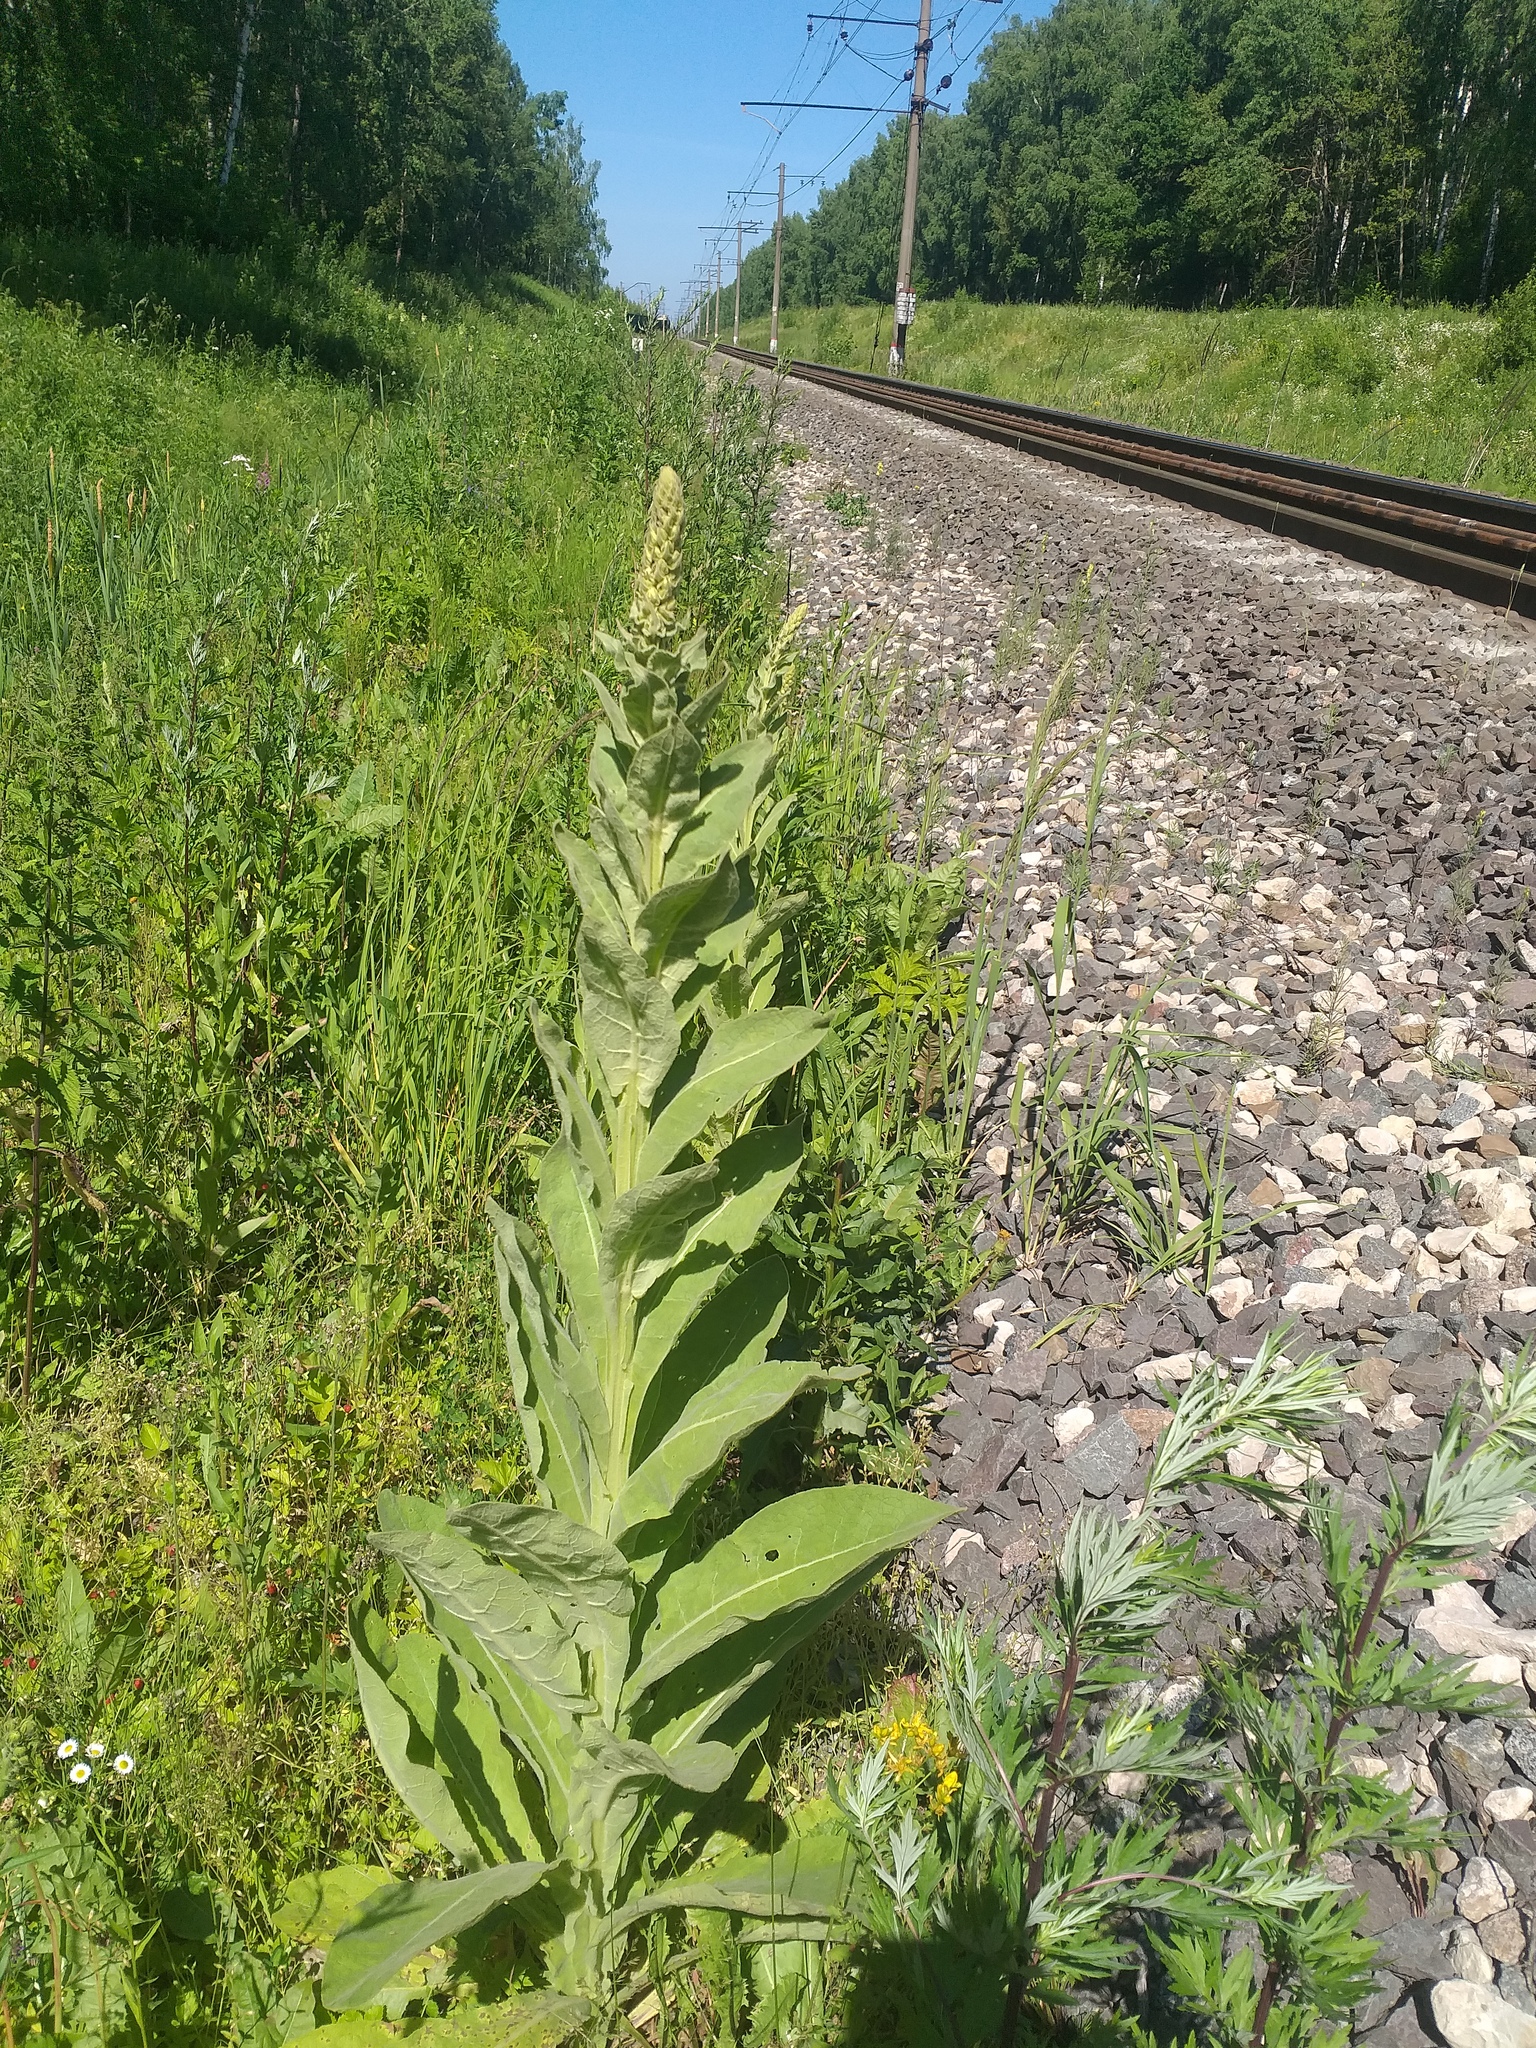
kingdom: Plantae
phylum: Tracheophyta
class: Magnoliopsida
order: Lamiales
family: Scrophulariaceae
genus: Verbascum
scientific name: Verbascum thapsus
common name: Common mullein
